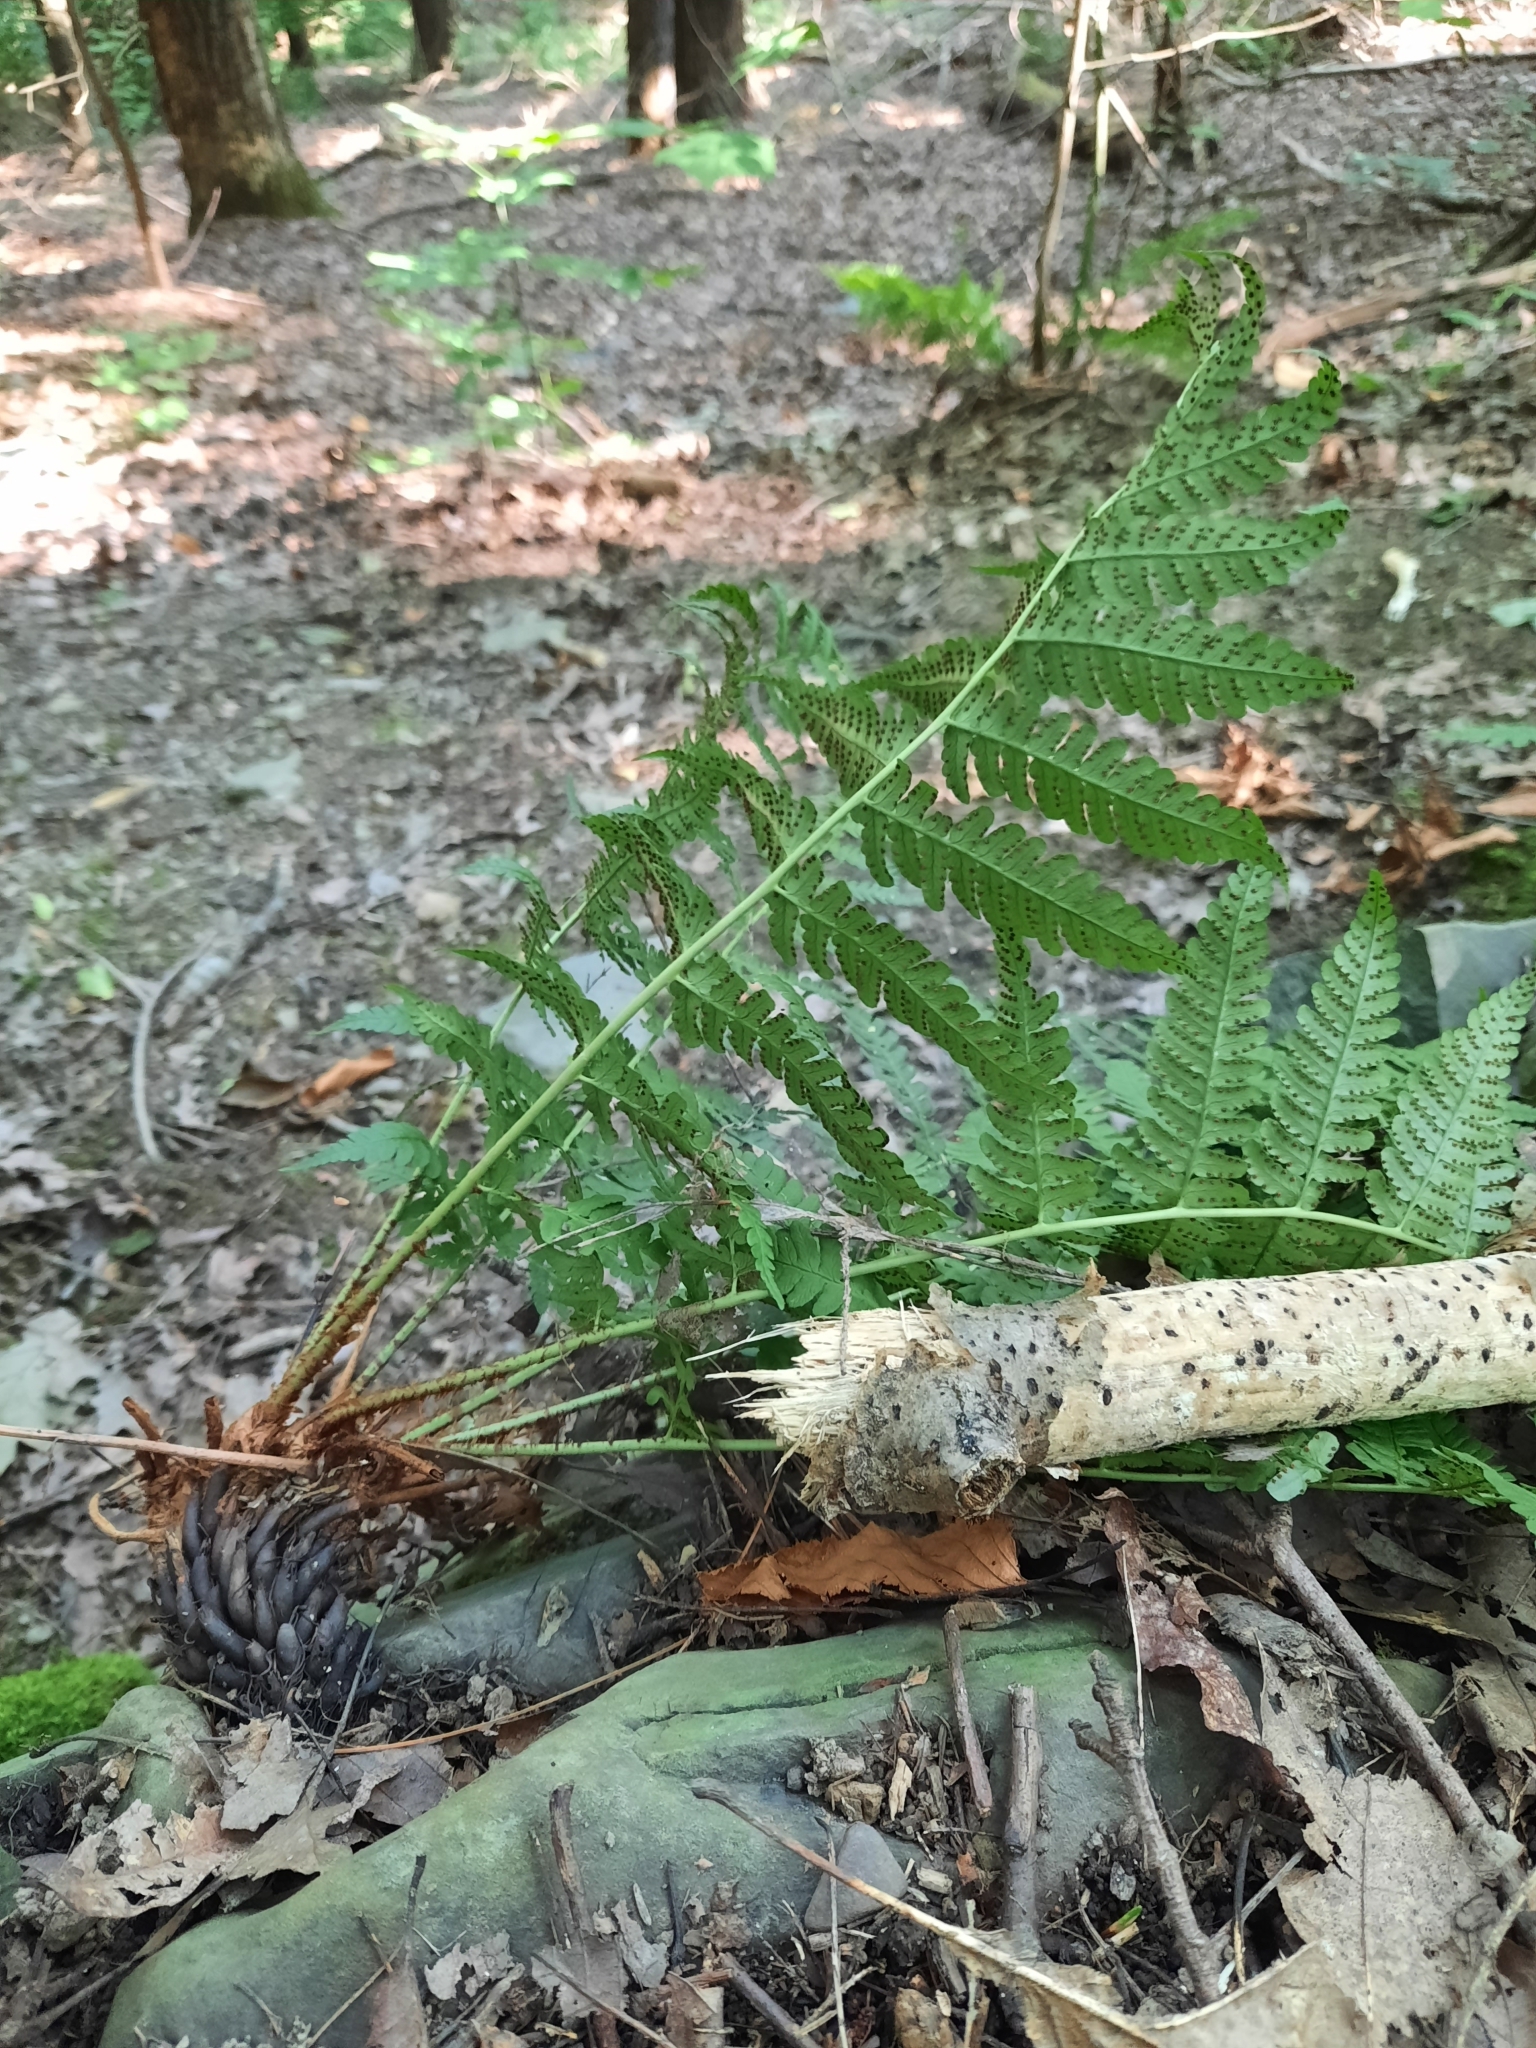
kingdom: Plantae
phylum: Tracheophyta
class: Polypodiopsida
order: Polypodiales
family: Dryopteridaceae
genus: Dryopteris
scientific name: Dryopteris marginalis
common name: Marginal wood fern
